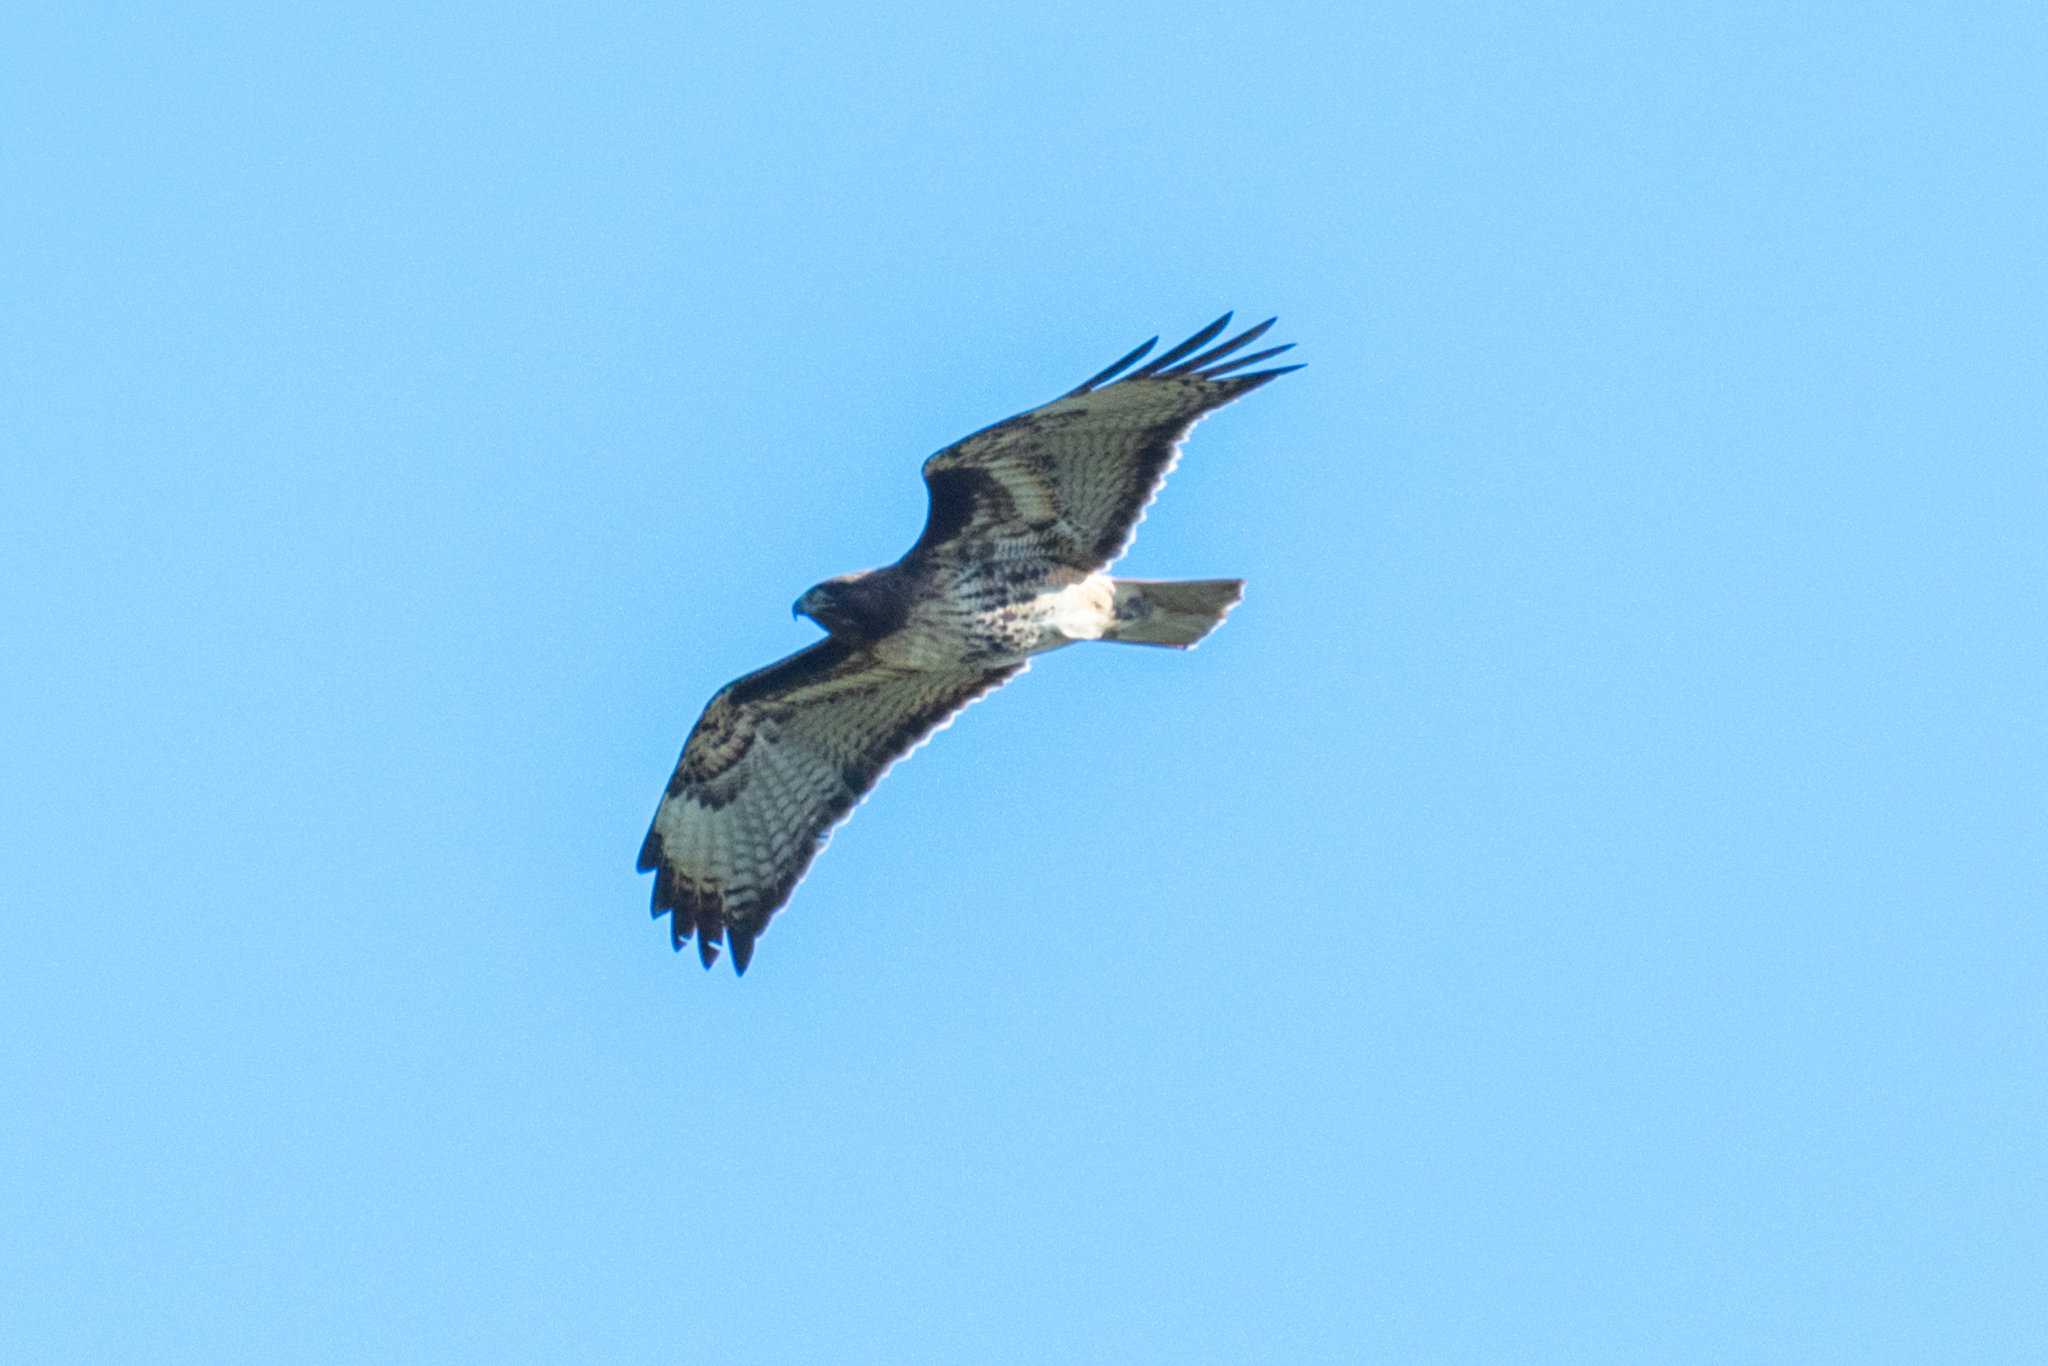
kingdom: Animalia
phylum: Chordata
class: Aves
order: Accipitriformes
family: Accipitridae
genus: Buteo
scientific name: Buteo jamaicensis
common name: Red-tailed hawk
